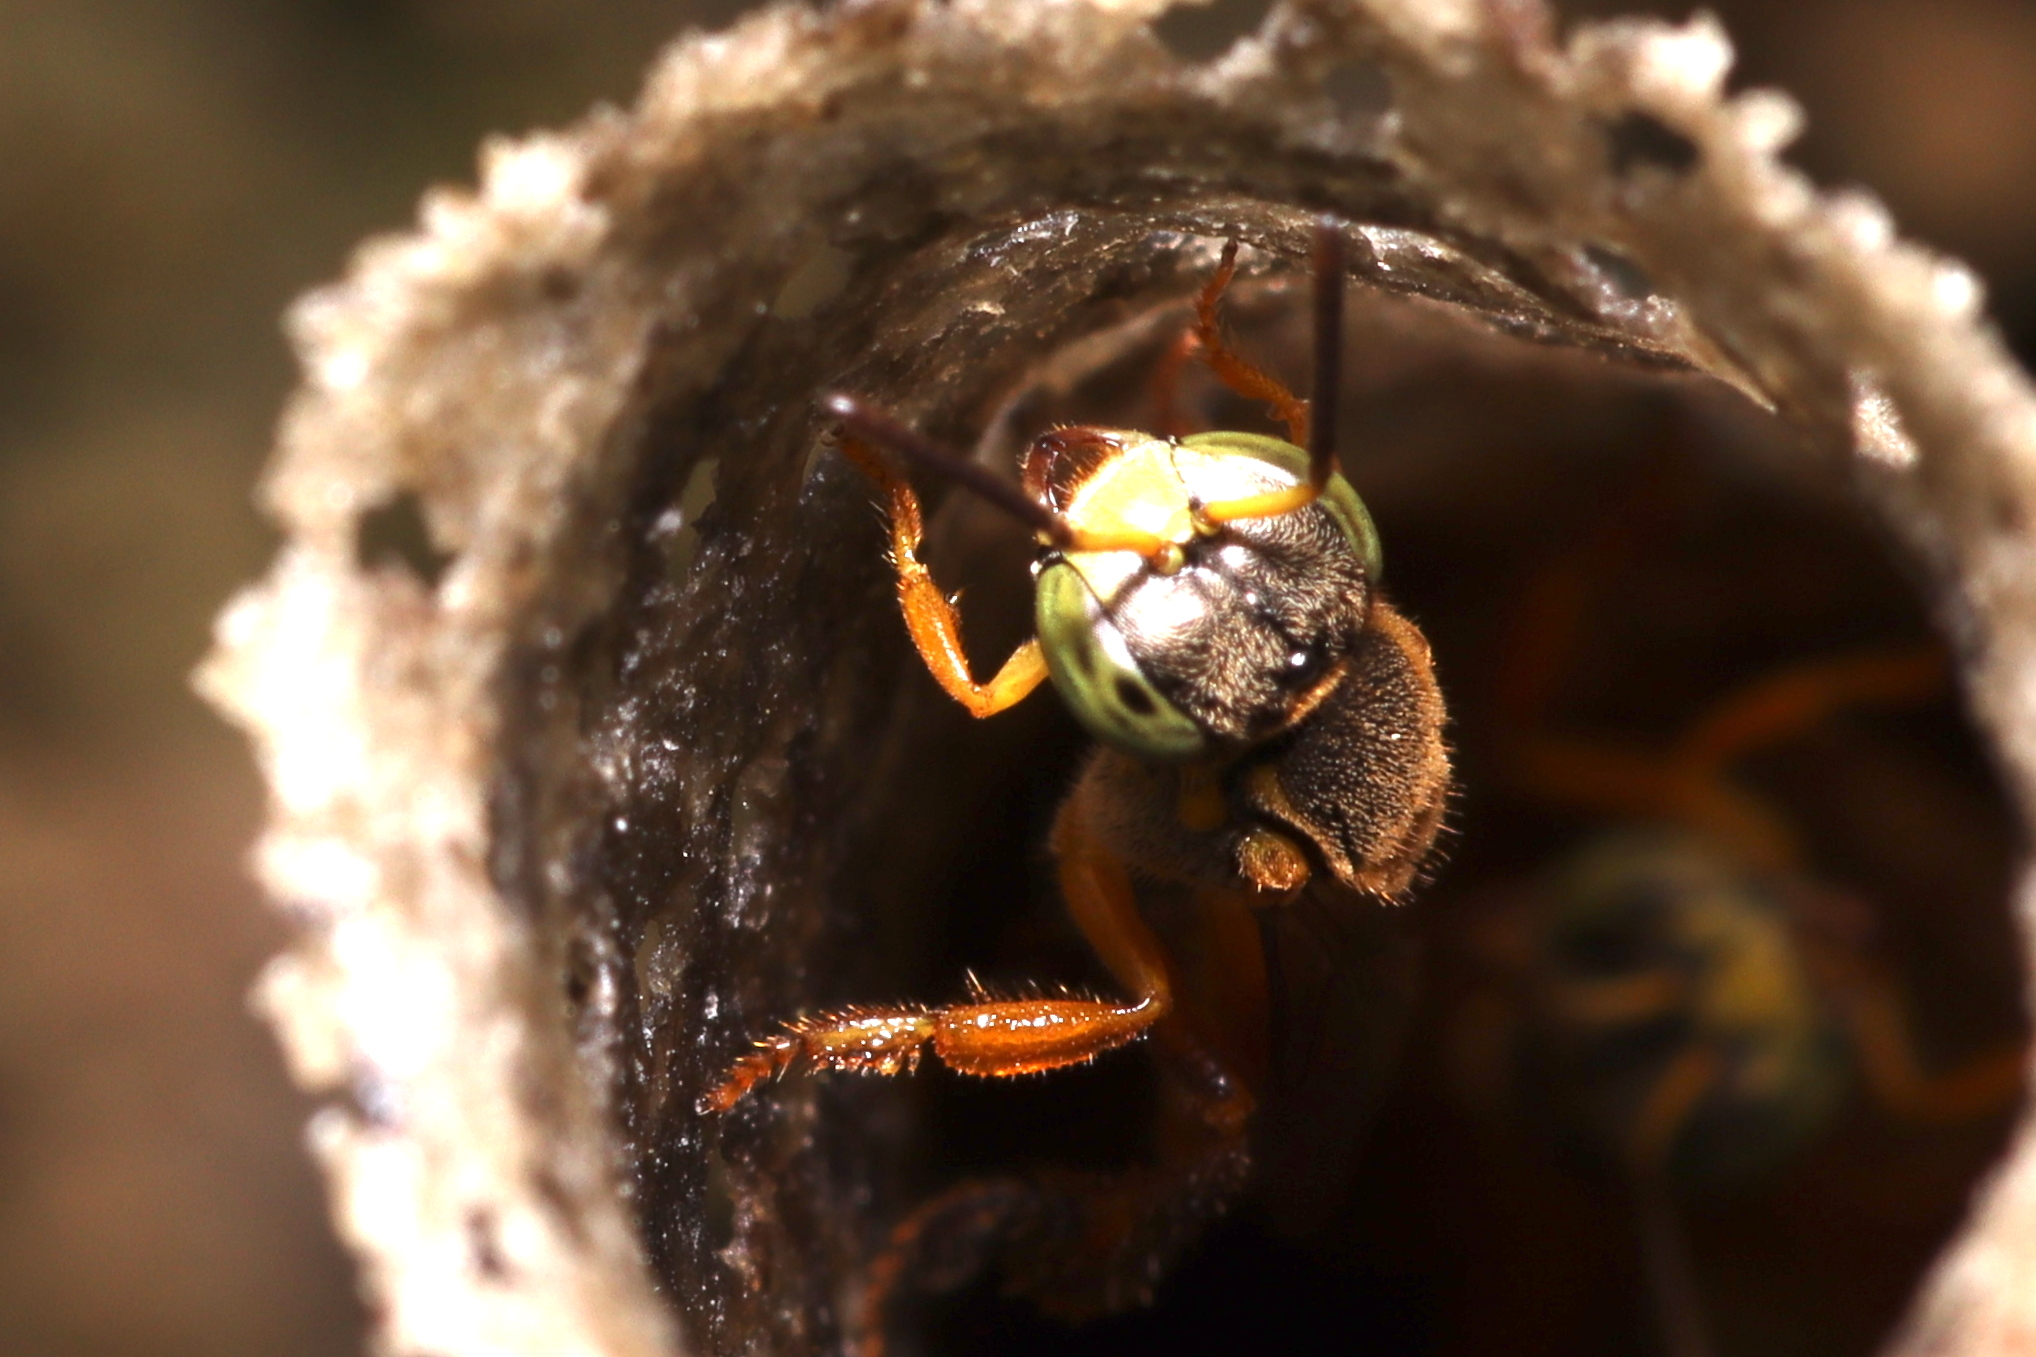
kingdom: Animalia
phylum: Arthropoda
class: Insecta
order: Hymenoptera
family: Apidae
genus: Tetragonisca
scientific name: Tetragonisca angustula
